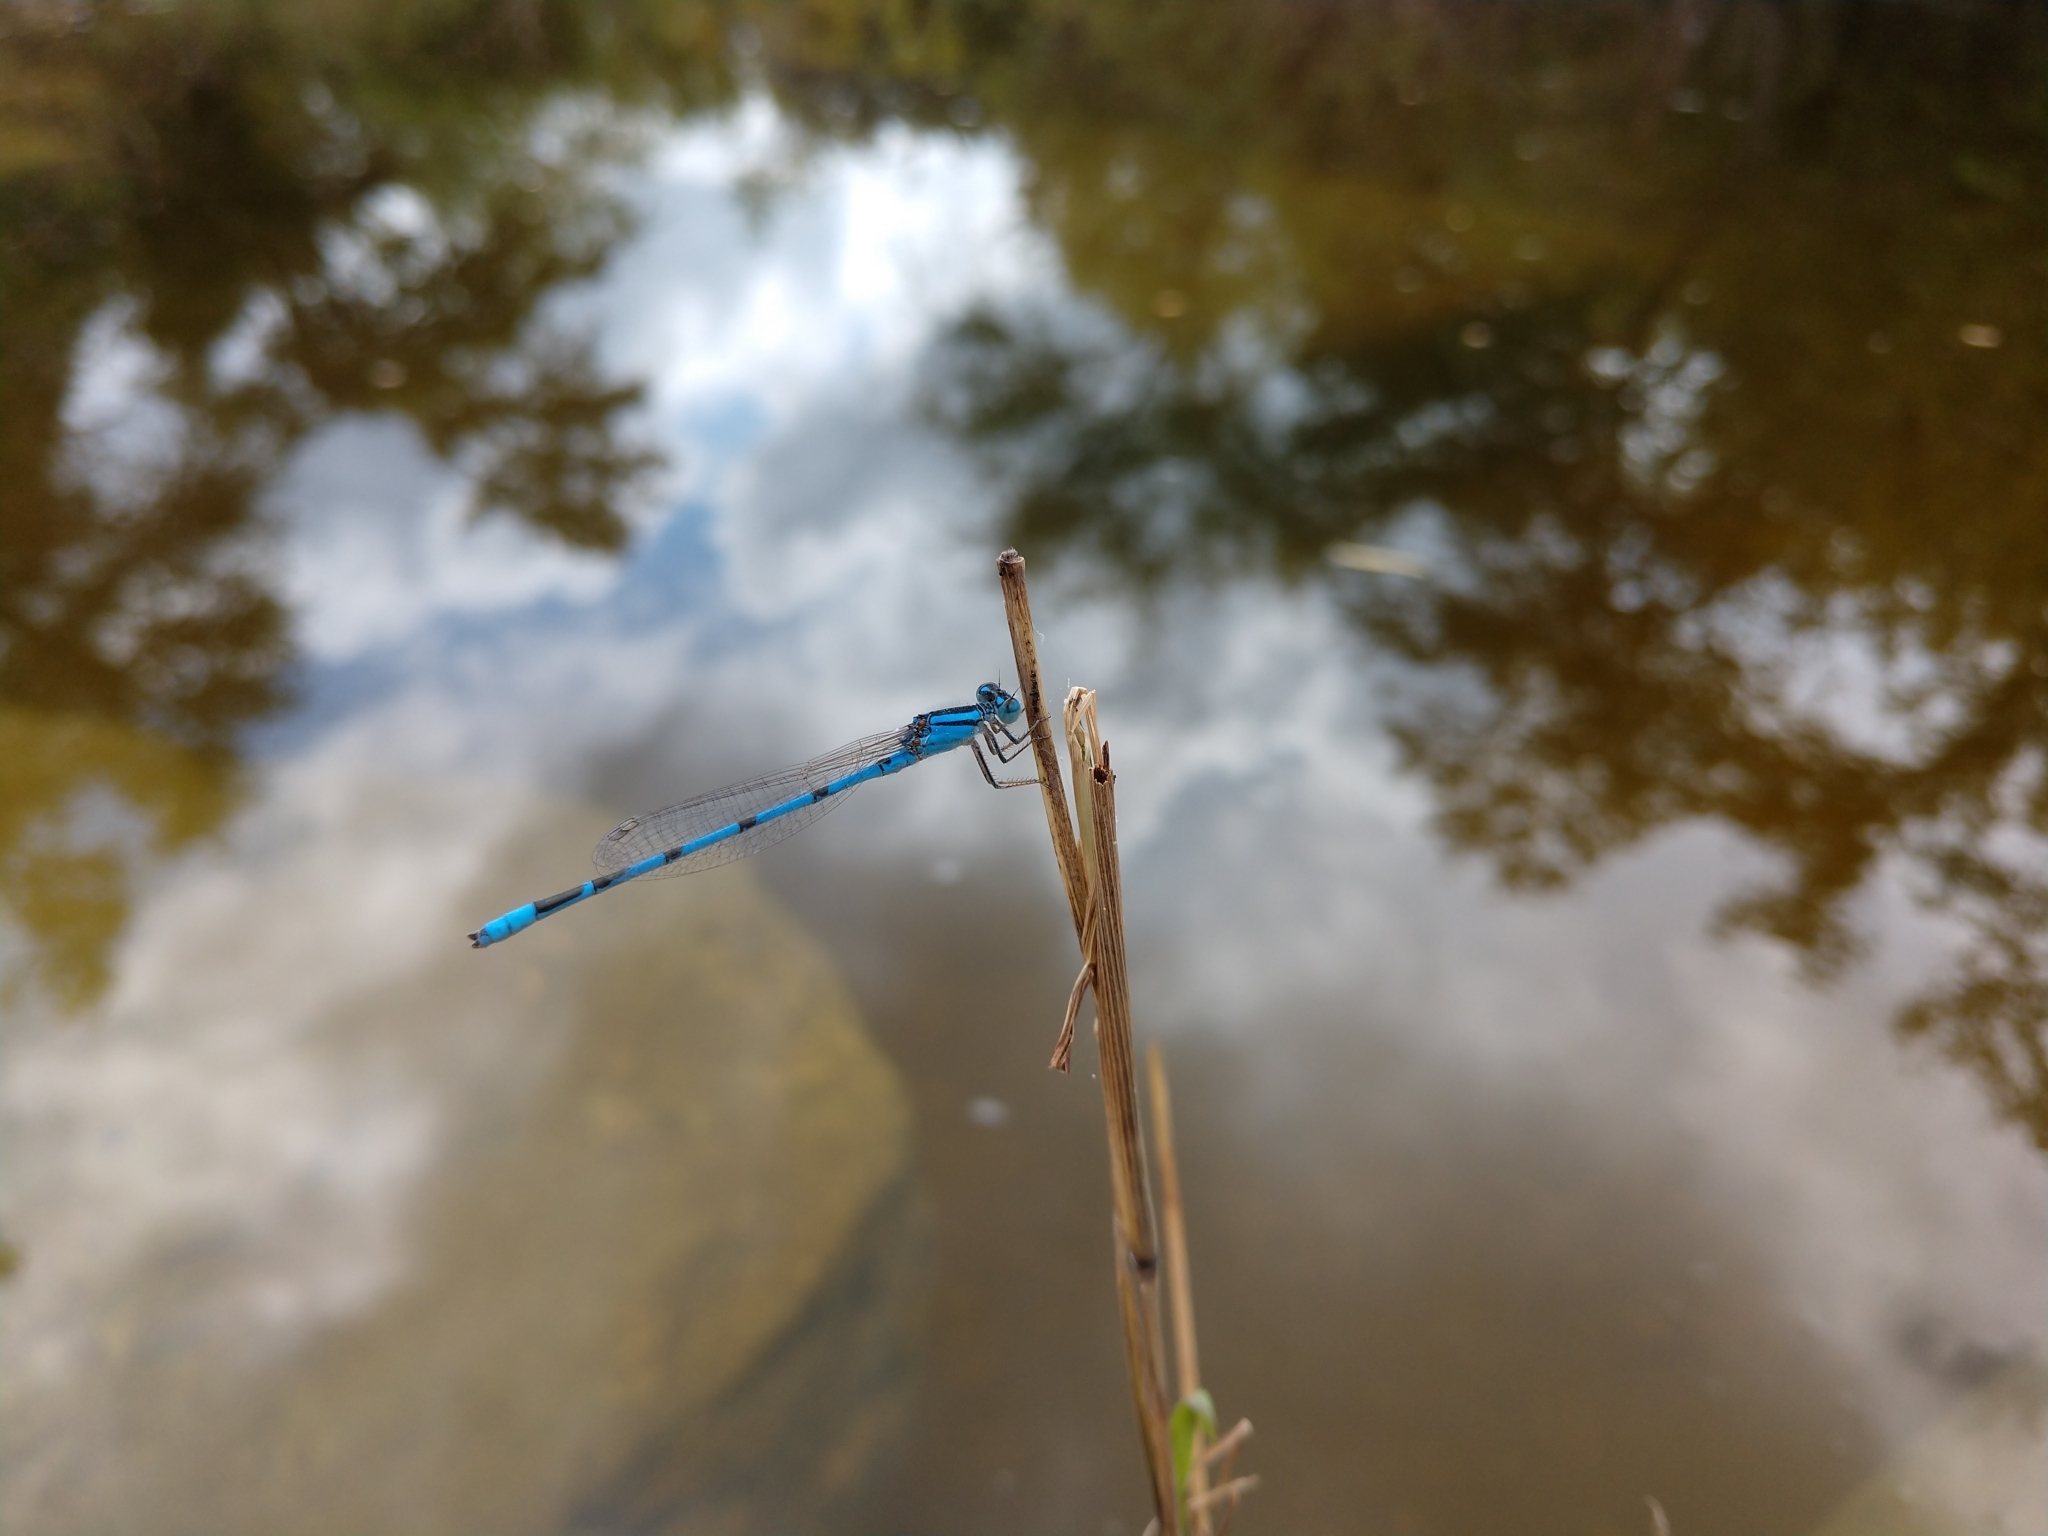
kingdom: Animalia
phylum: Arthropoda
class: Insecta
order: Odonata
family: Coenagrionidae
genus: Enallagma
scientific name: Enallagma civile
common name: Damselfly
